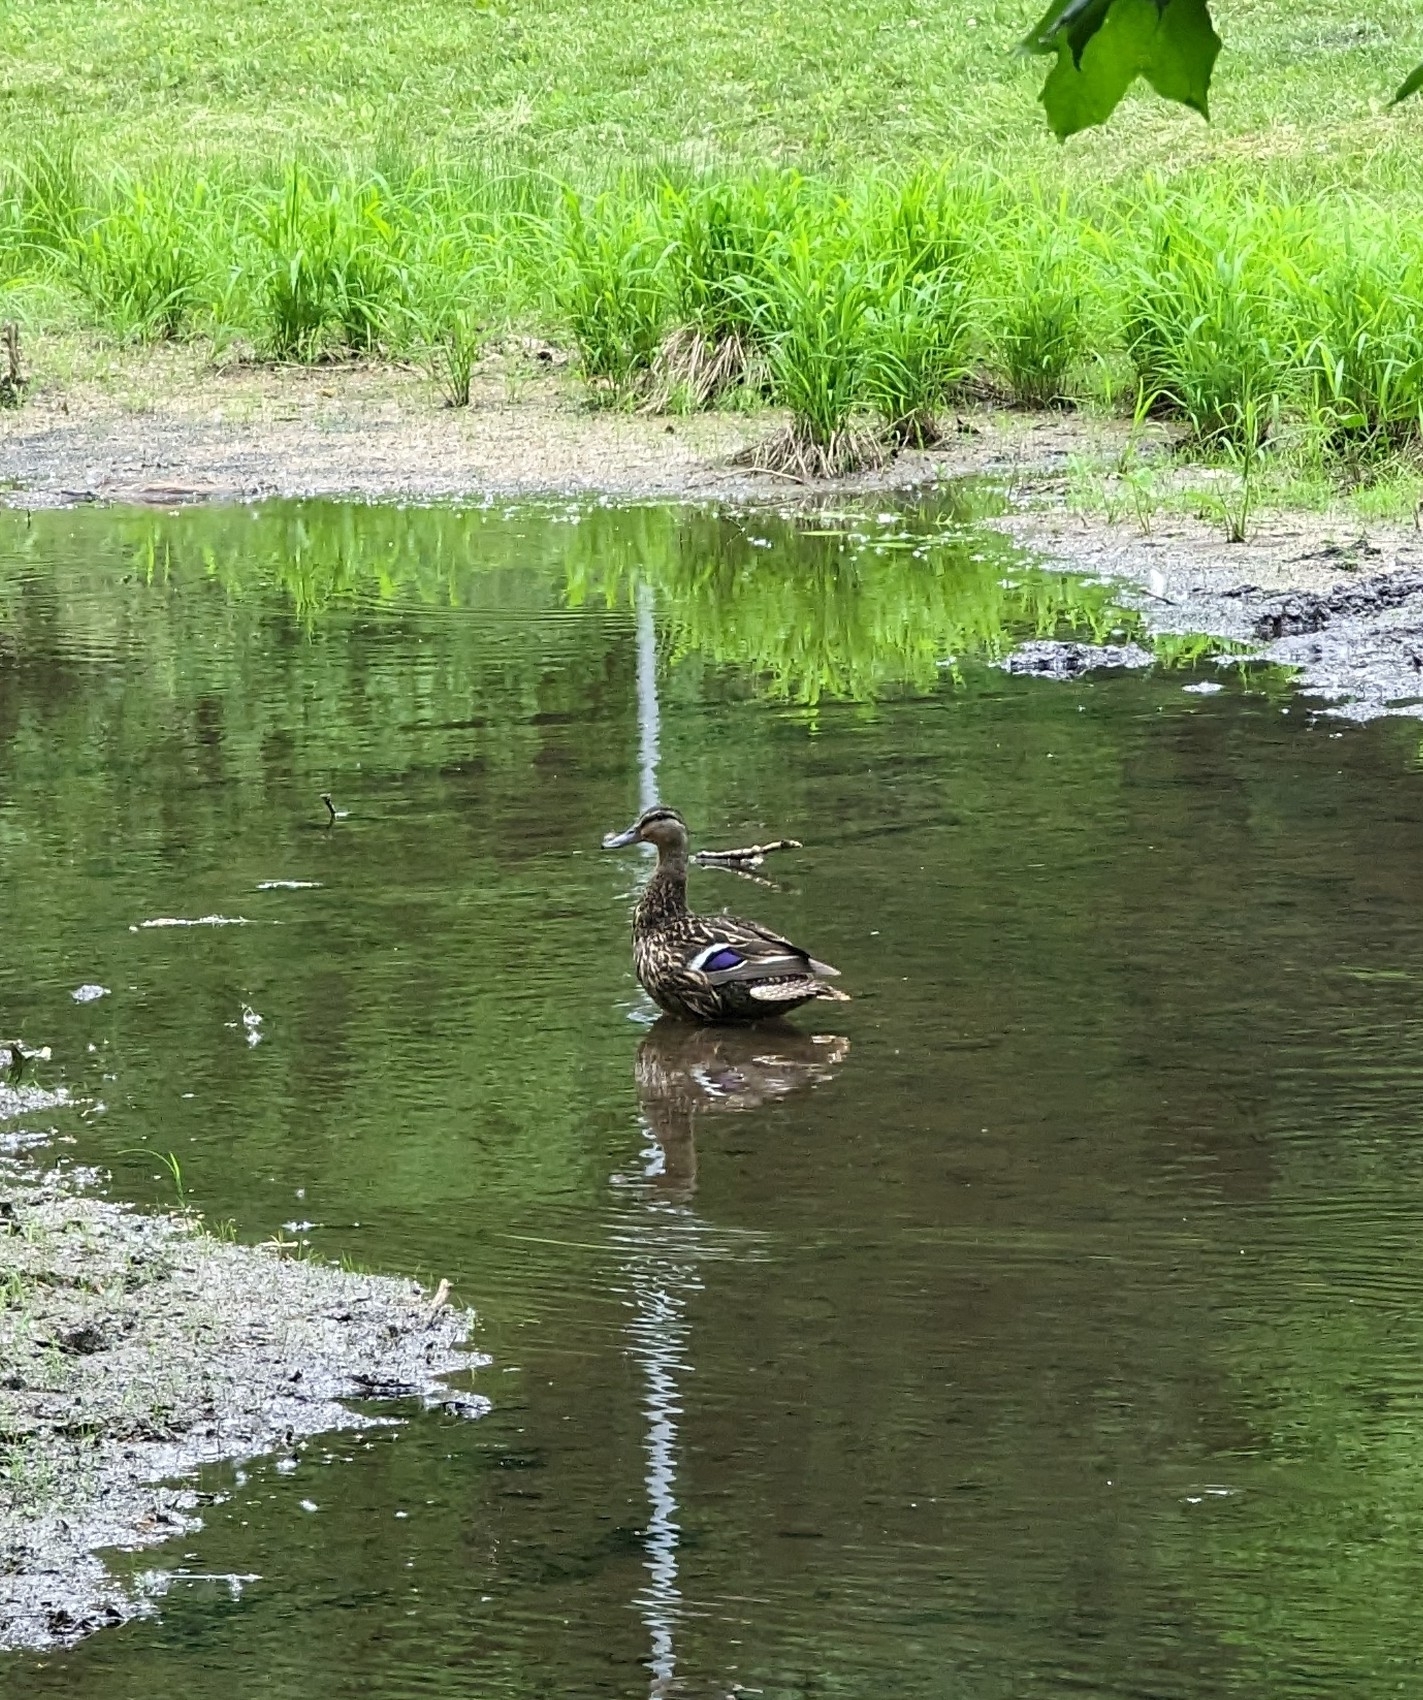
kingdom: Animalia
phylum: Chordata
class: Aves
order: Anseriformes
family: Anatidae
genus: Anas
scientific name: Anas platyrhynchos
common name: Mallard
